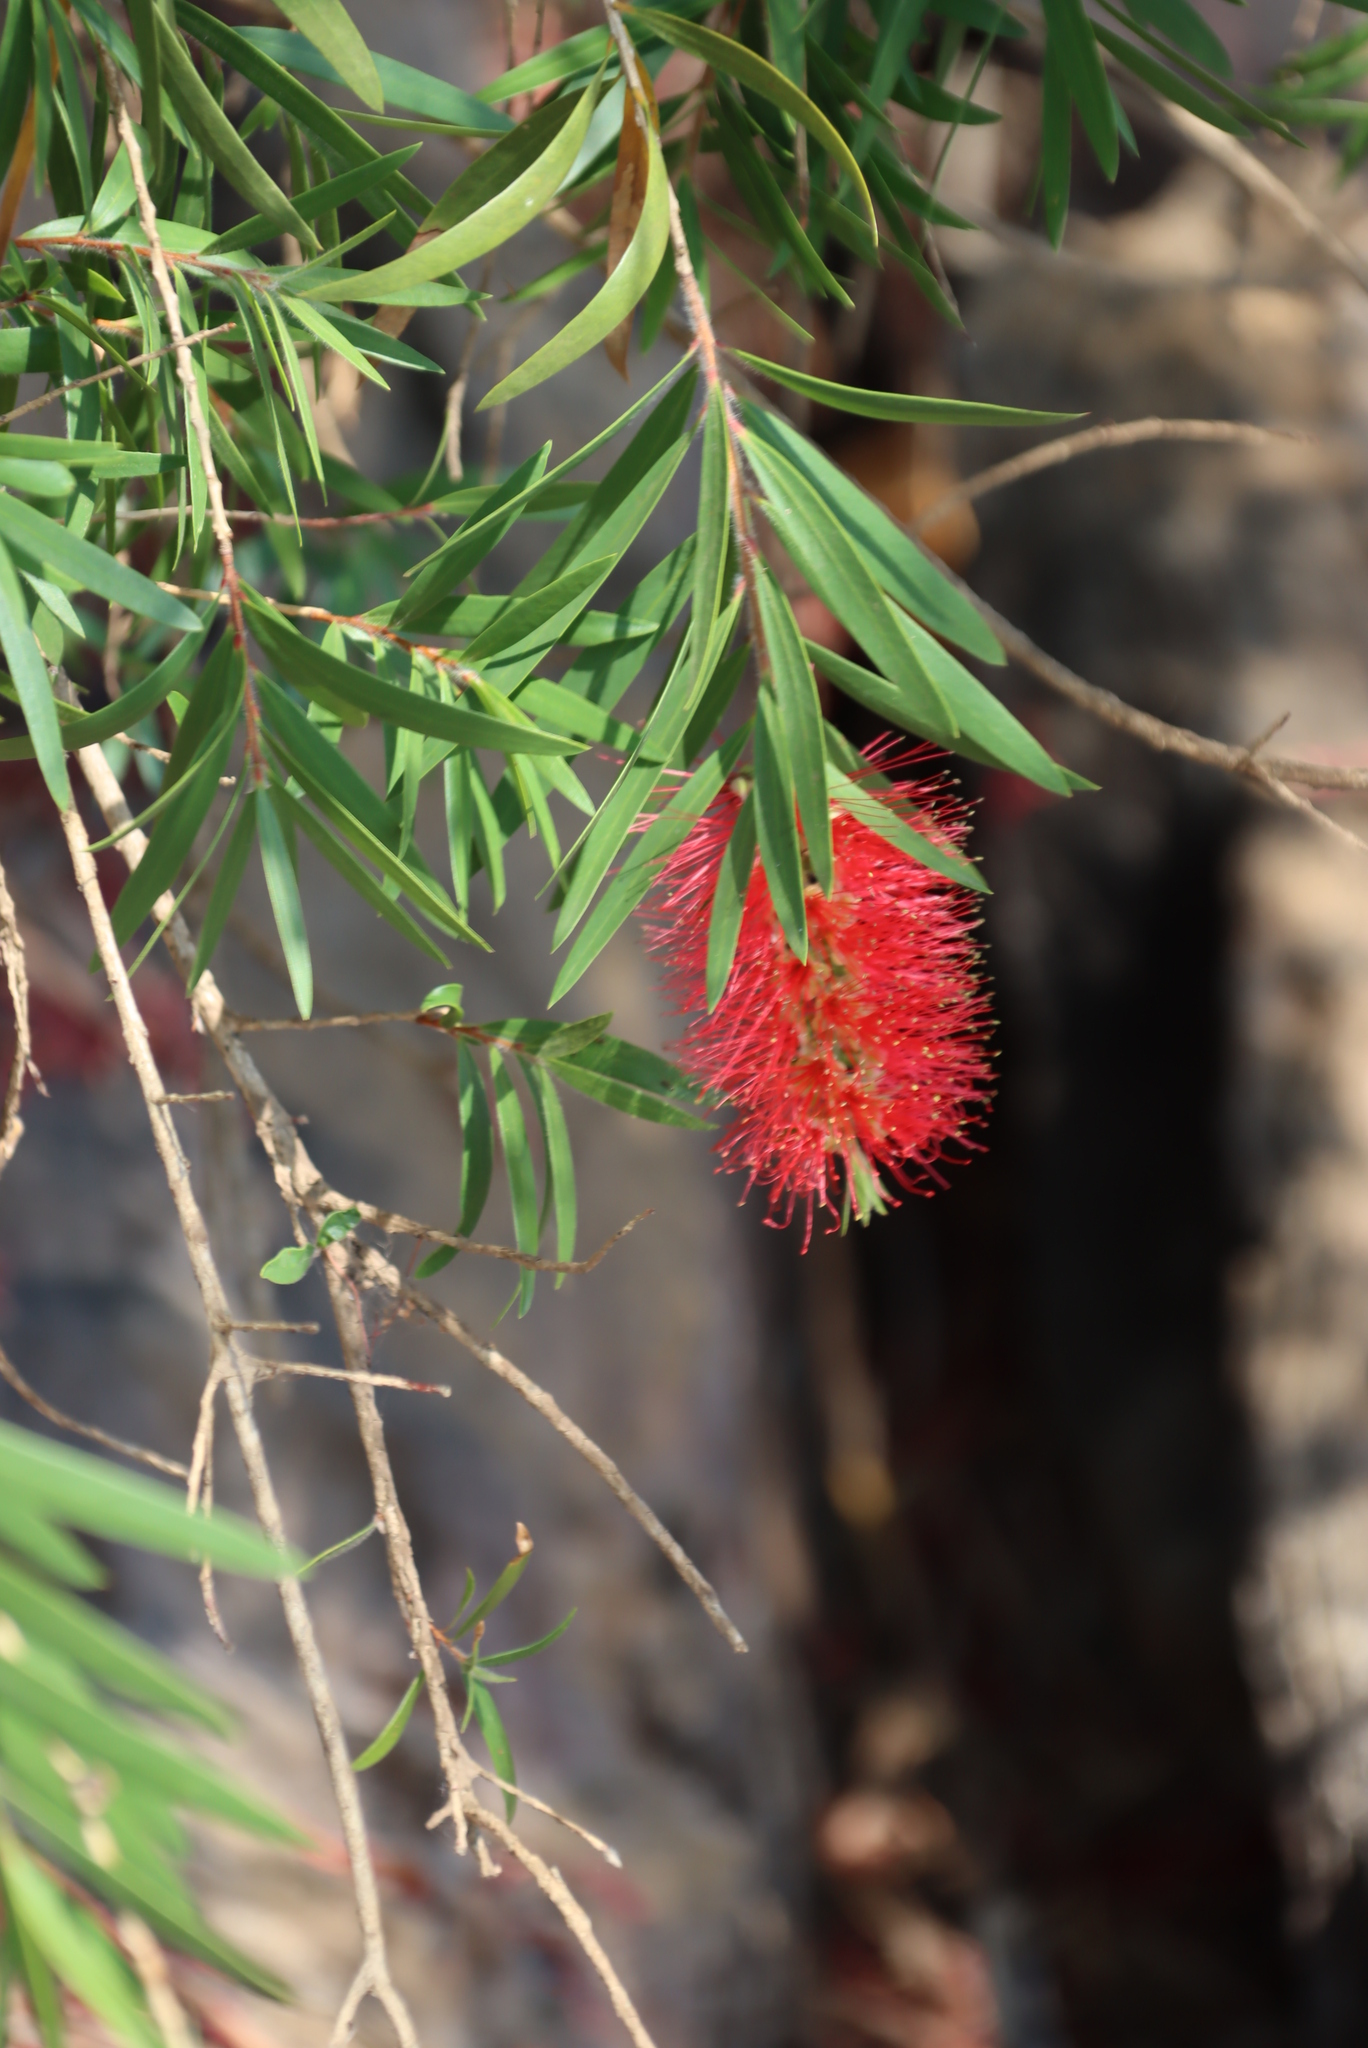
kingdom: Plantae
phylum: Tracheophyta
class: Magnoliopsida
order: Myrtales
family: Myrtaceae
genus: Callistemon
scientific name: Callistemon viminalis
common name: Drooping bottlebrush
